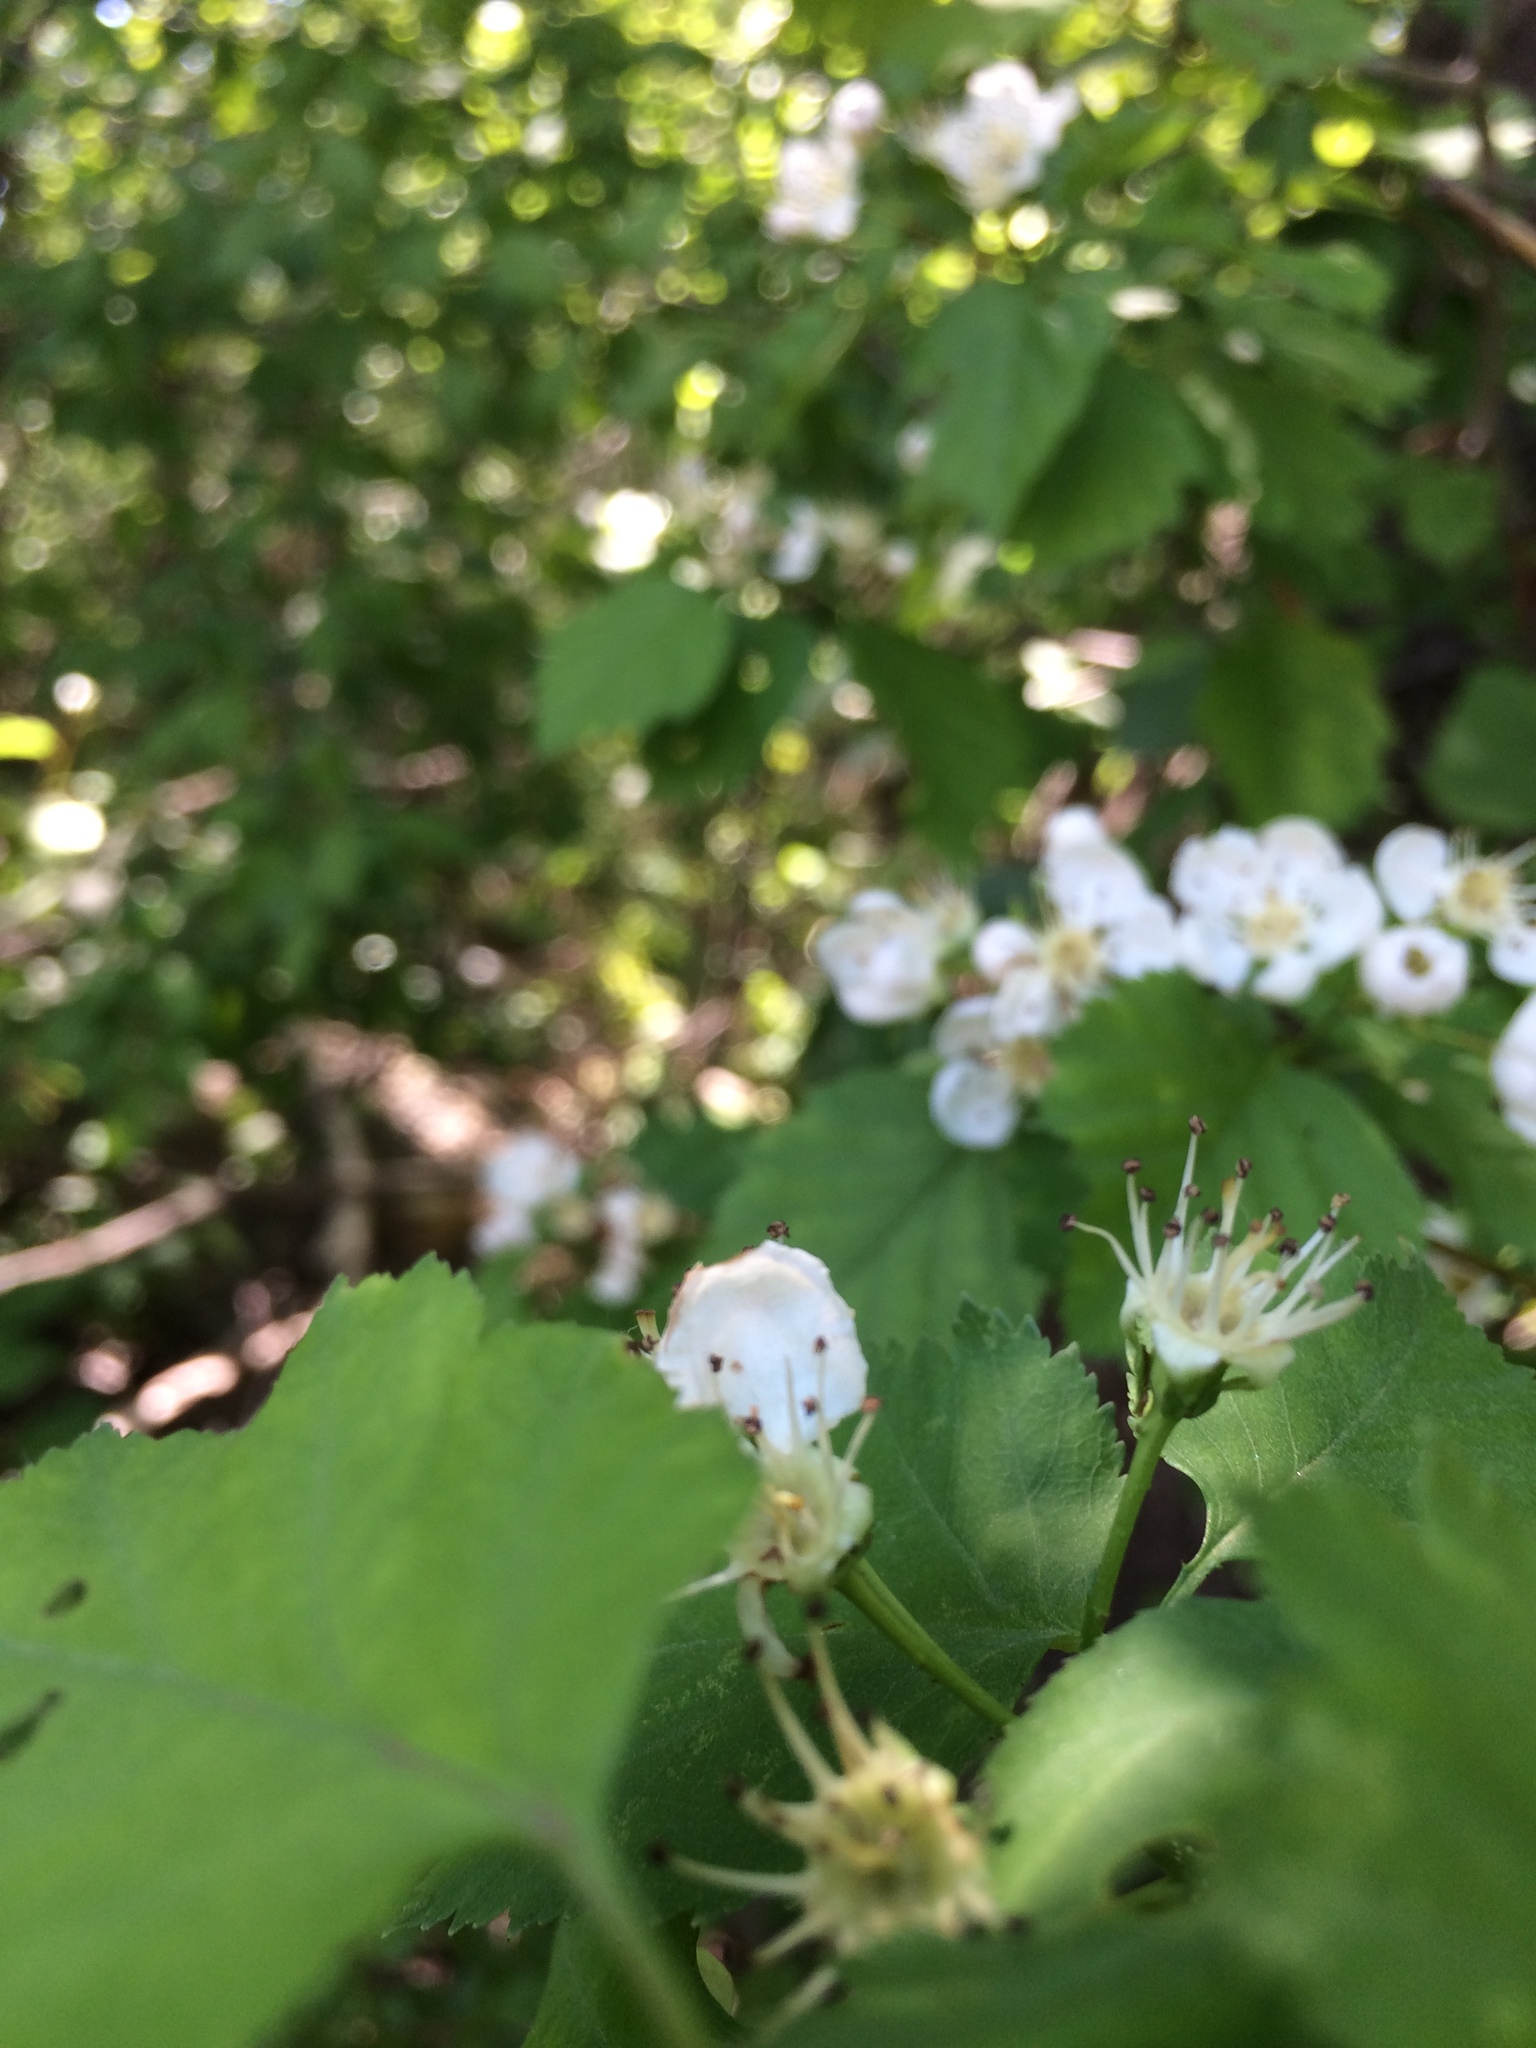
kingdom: Plantae
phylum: Tracheophyta
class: Magnoliopsida
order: Rosales
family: Rosaceae
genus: Crataegus
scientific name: Crataegus schuettei
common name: Schuette's hawthorn
